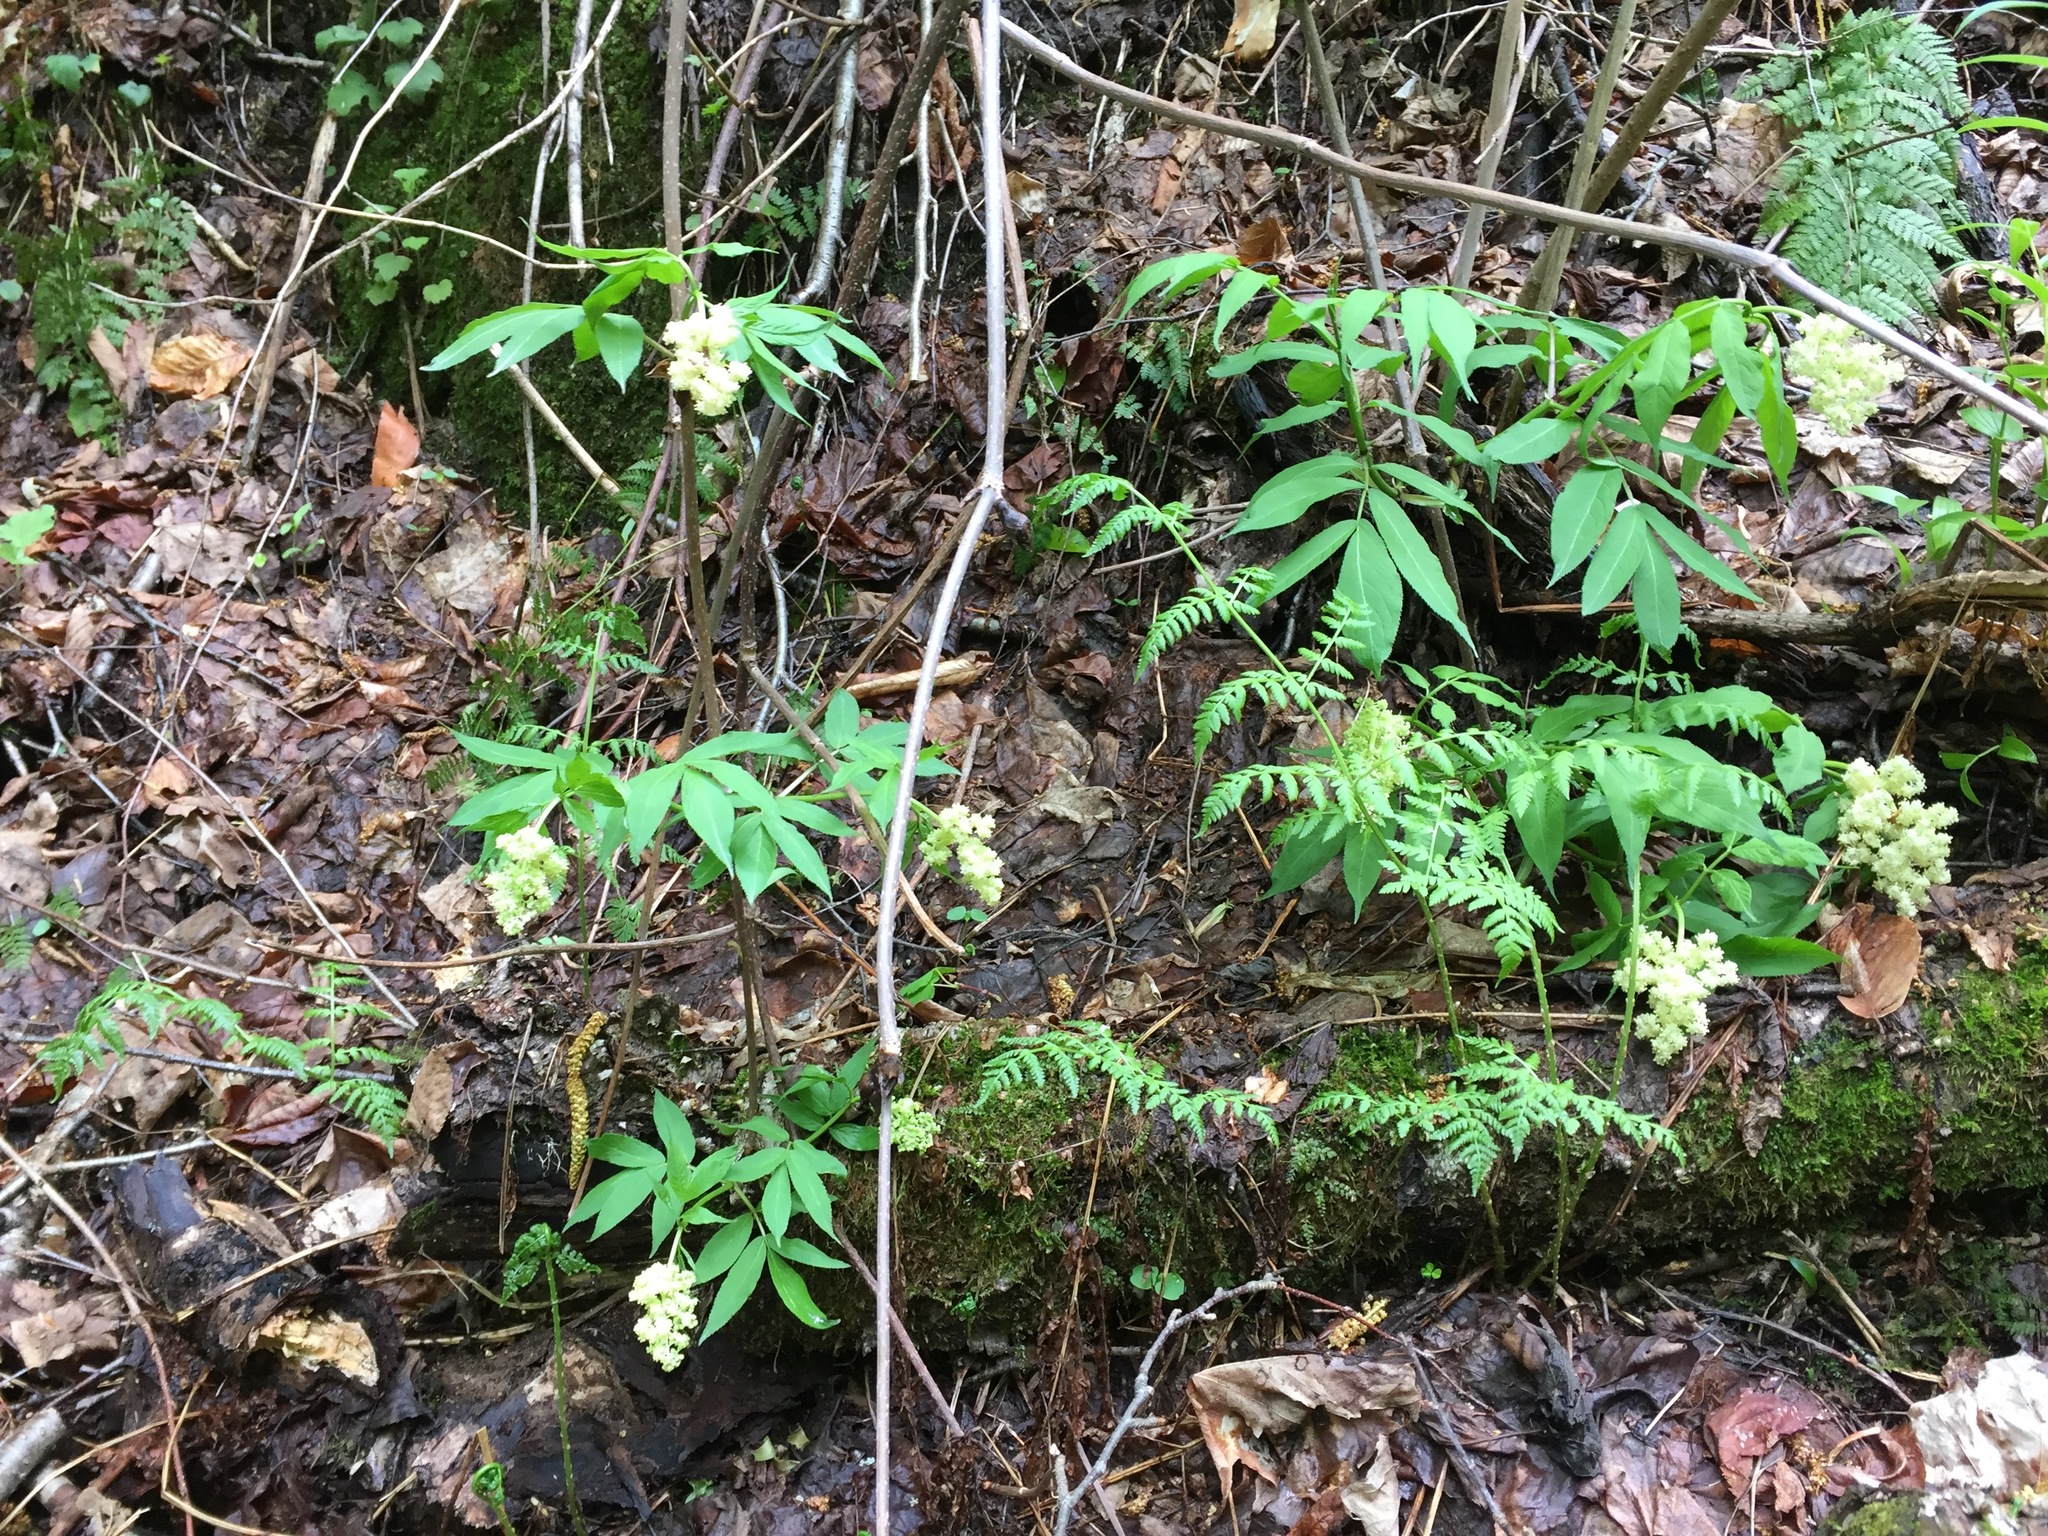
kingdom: Plantae
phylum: Tracheophyta
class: Magnoliopsida
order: Dipsacales
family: Viburnaceae
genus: Sambucus
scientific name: Sambucus racemosa
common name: Red-berried elder
